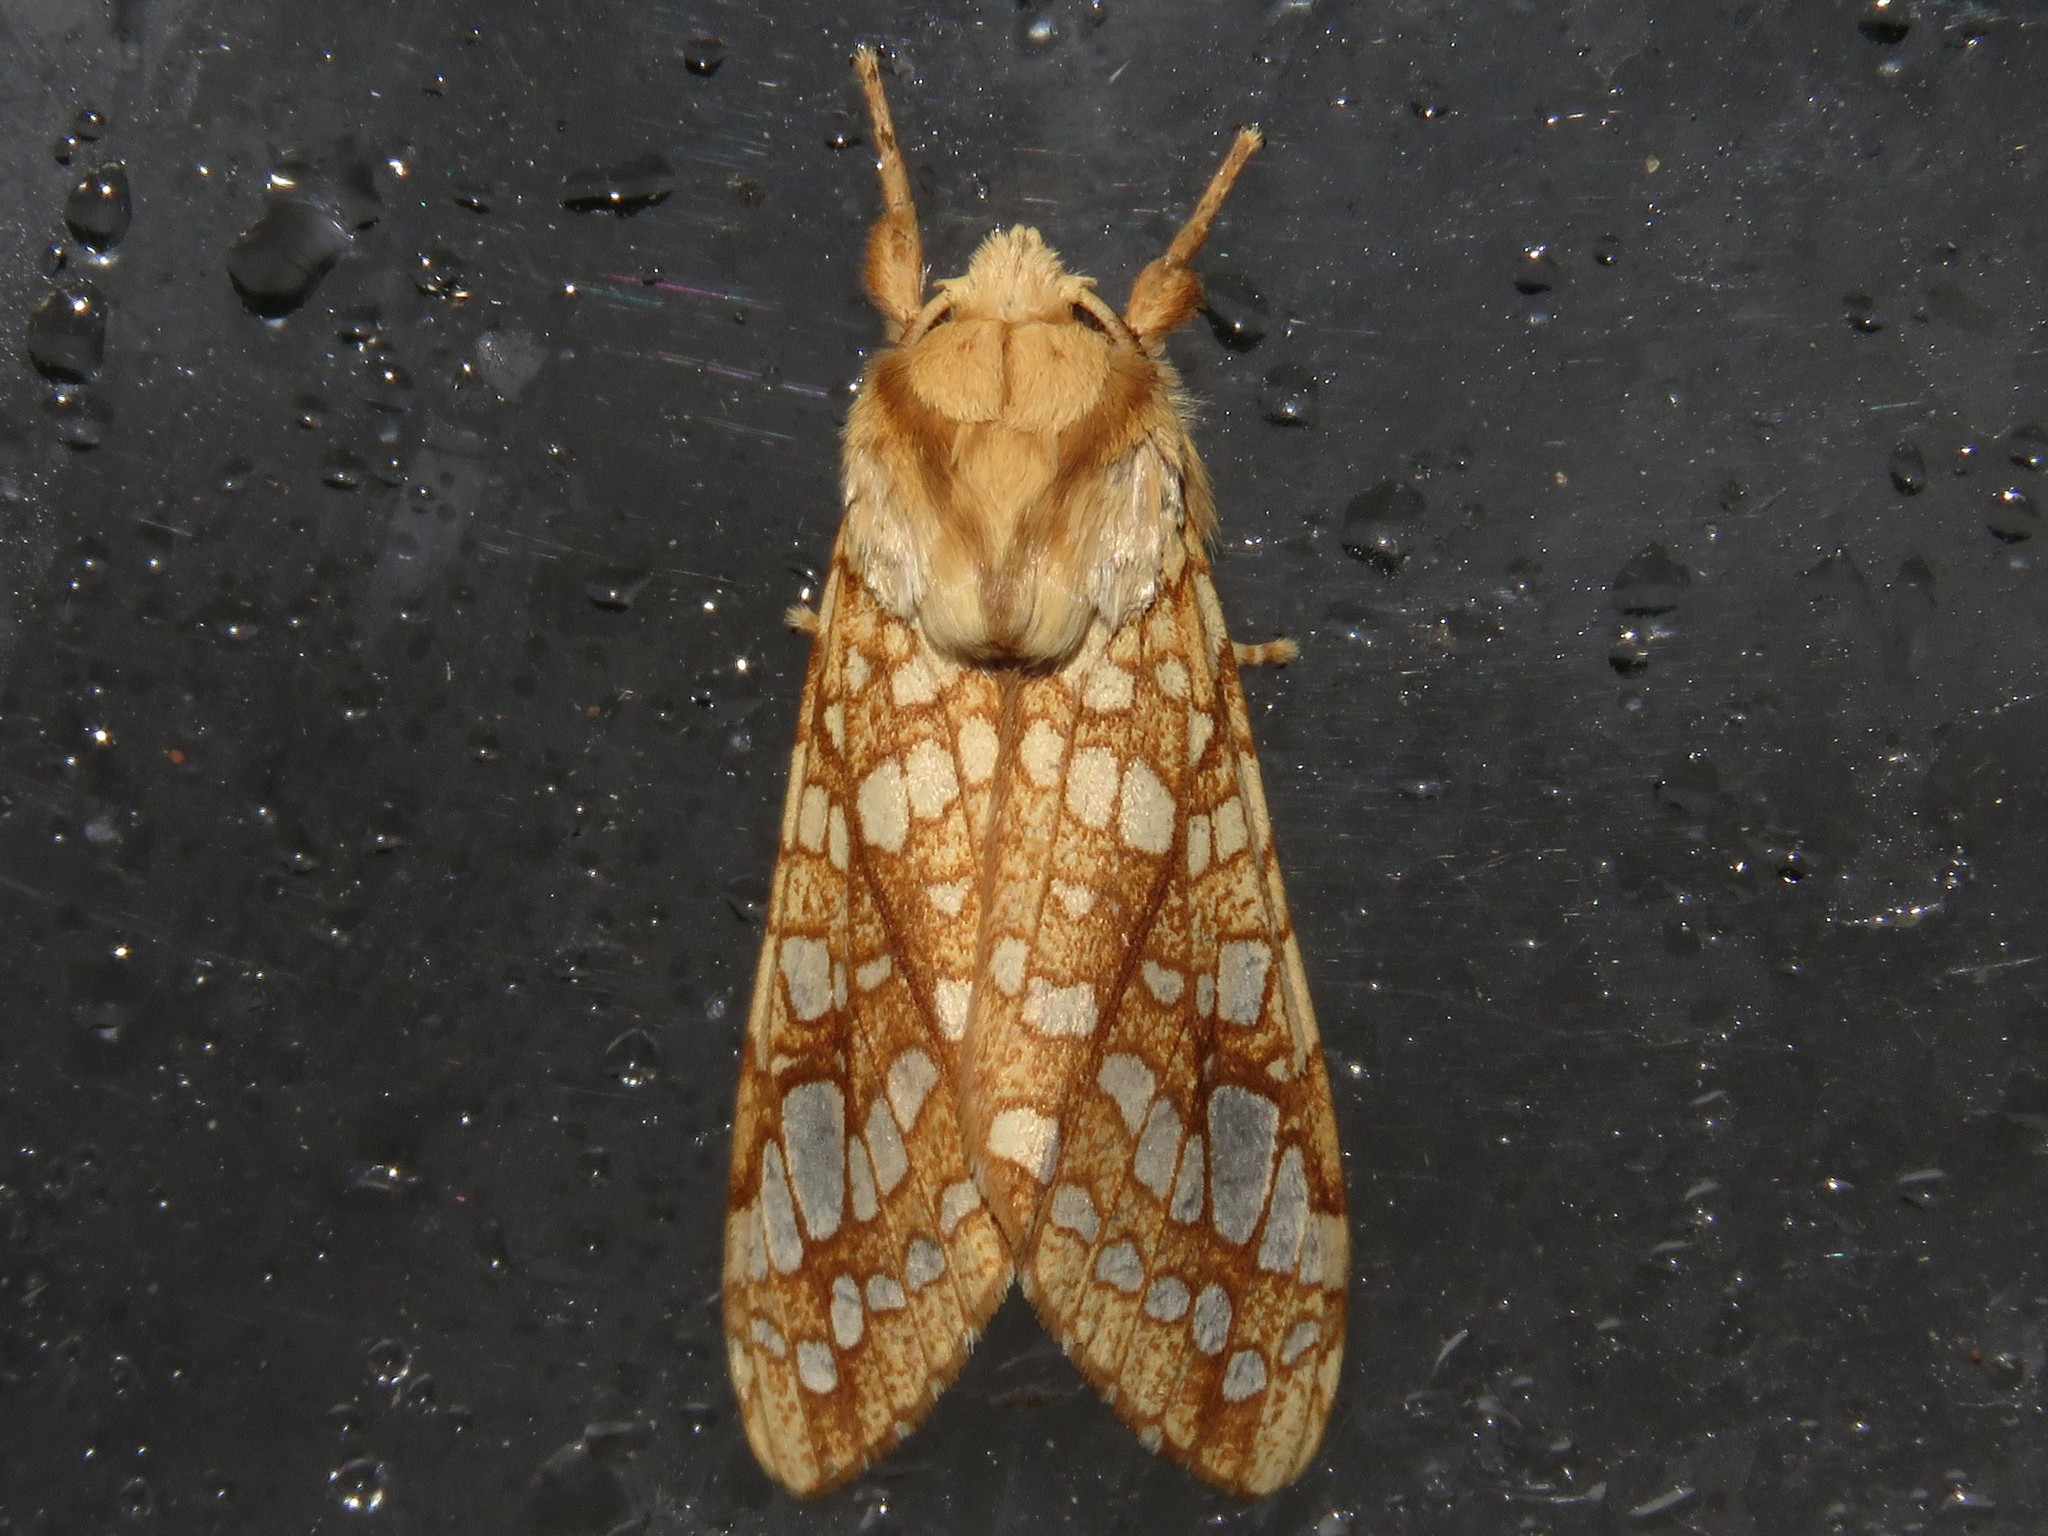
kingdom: Animalia
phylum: Arthropoda
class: Insecta
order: Lepidoptera
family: Erebidae
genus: Lophocampa
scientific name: Lophocampa caryae
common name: Hickory tussock moth
